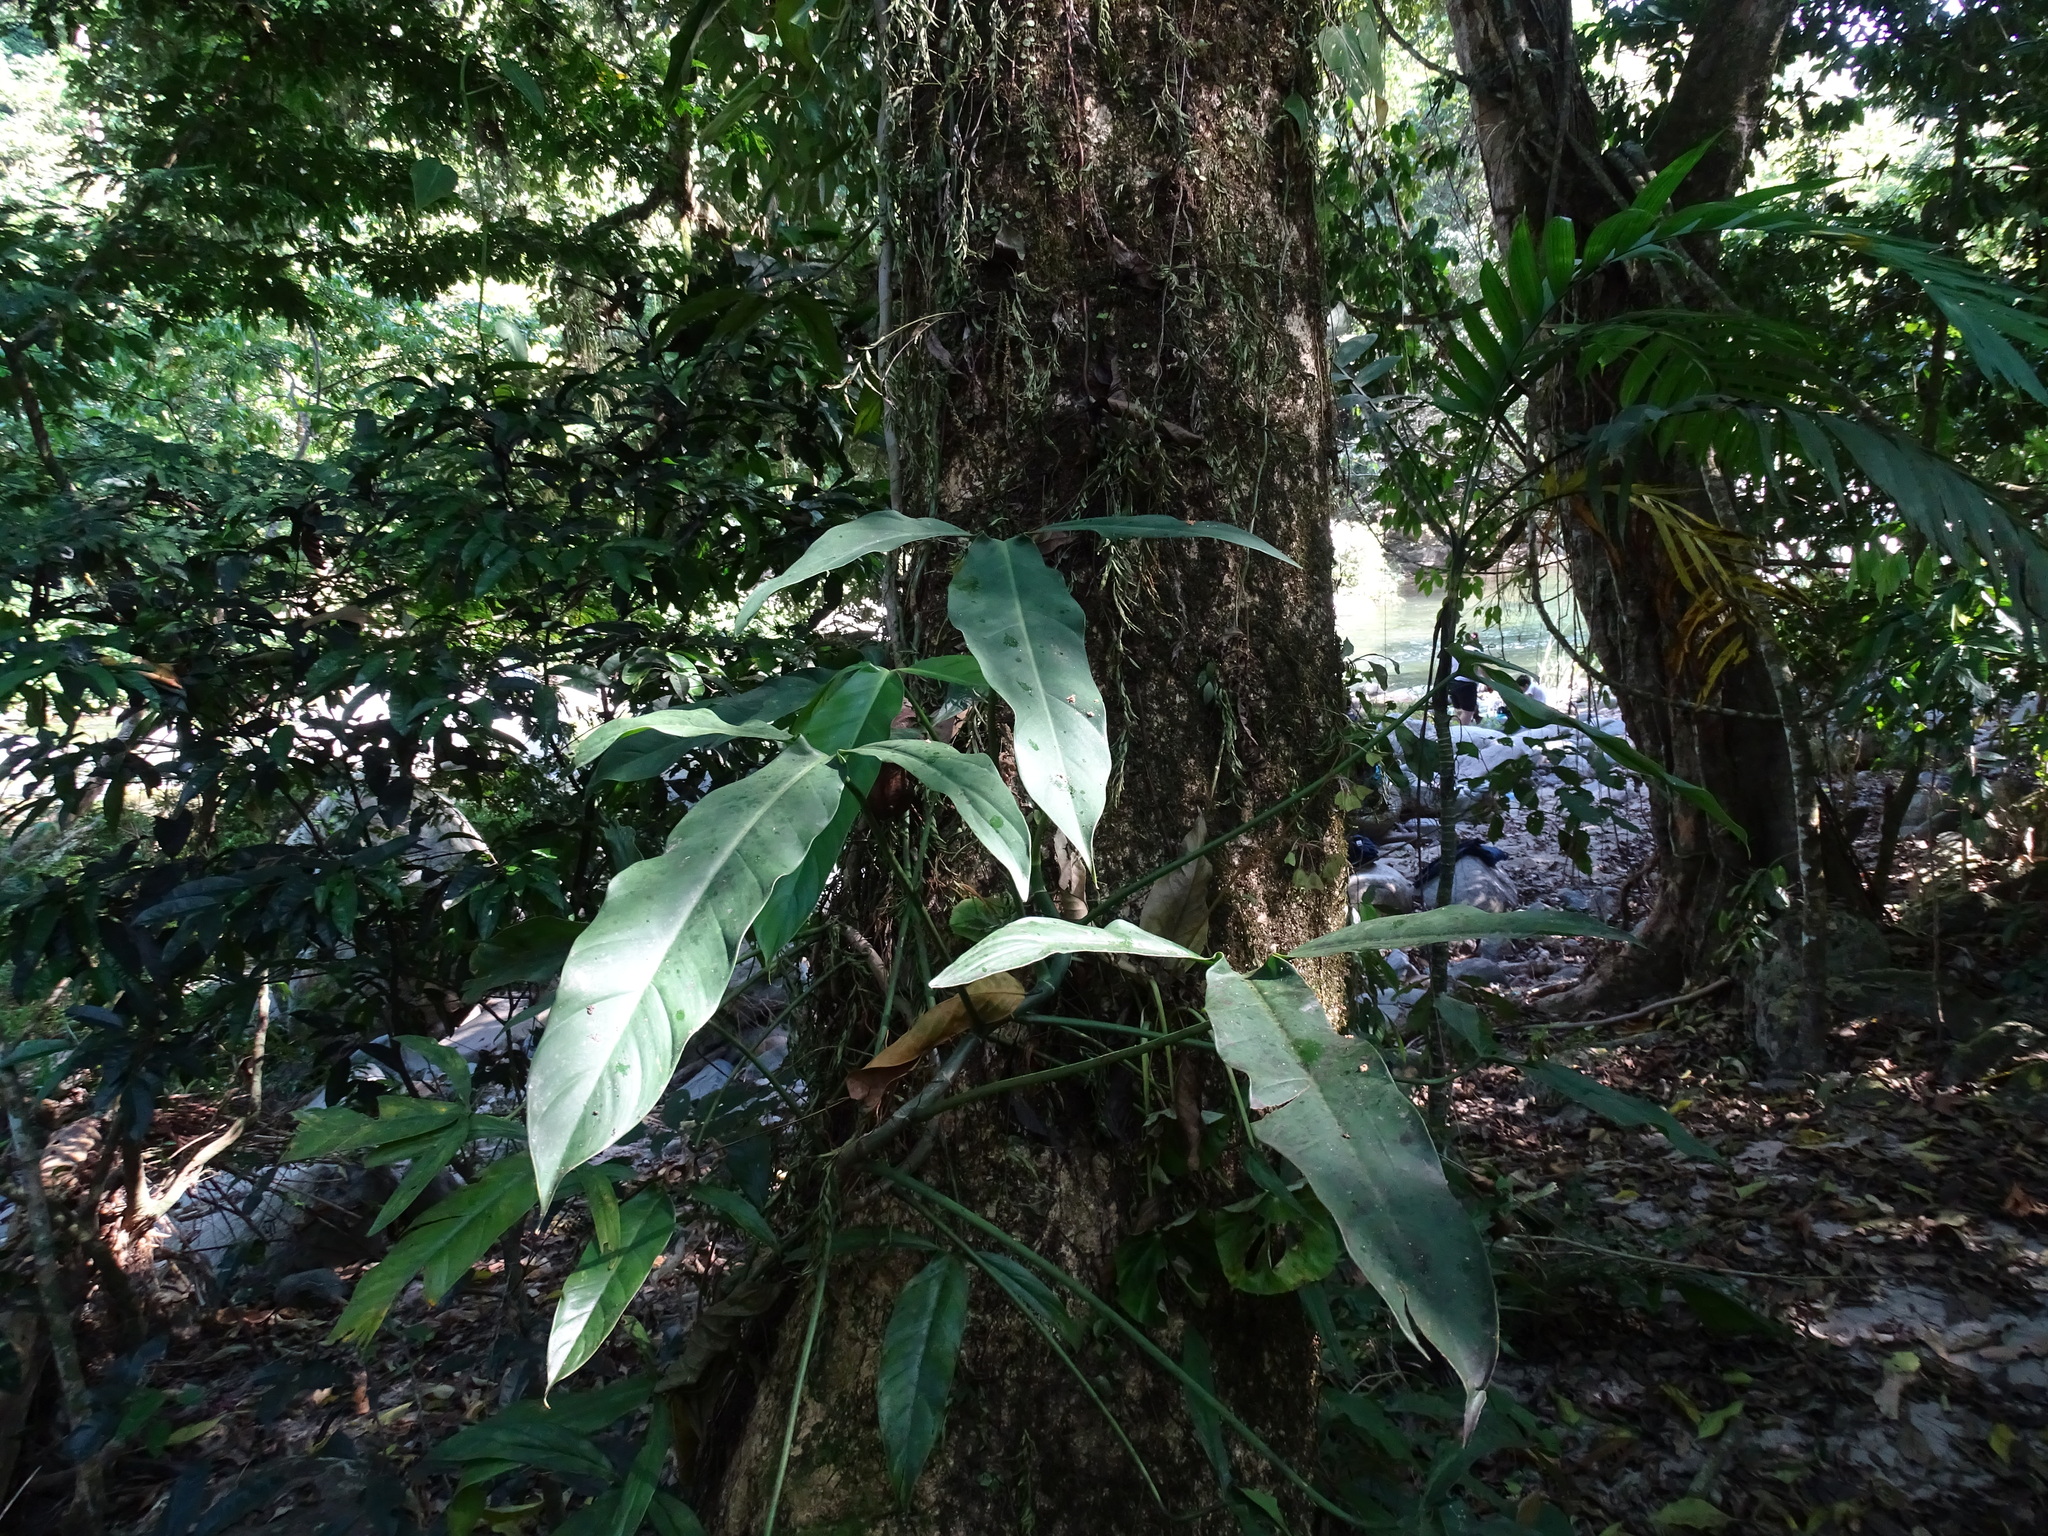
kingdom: Plantae
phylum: Tracheophyta
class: Liliopsida
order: Alismatales
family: Araceae
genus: Philodendron
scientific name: Philodendron anisotomum
